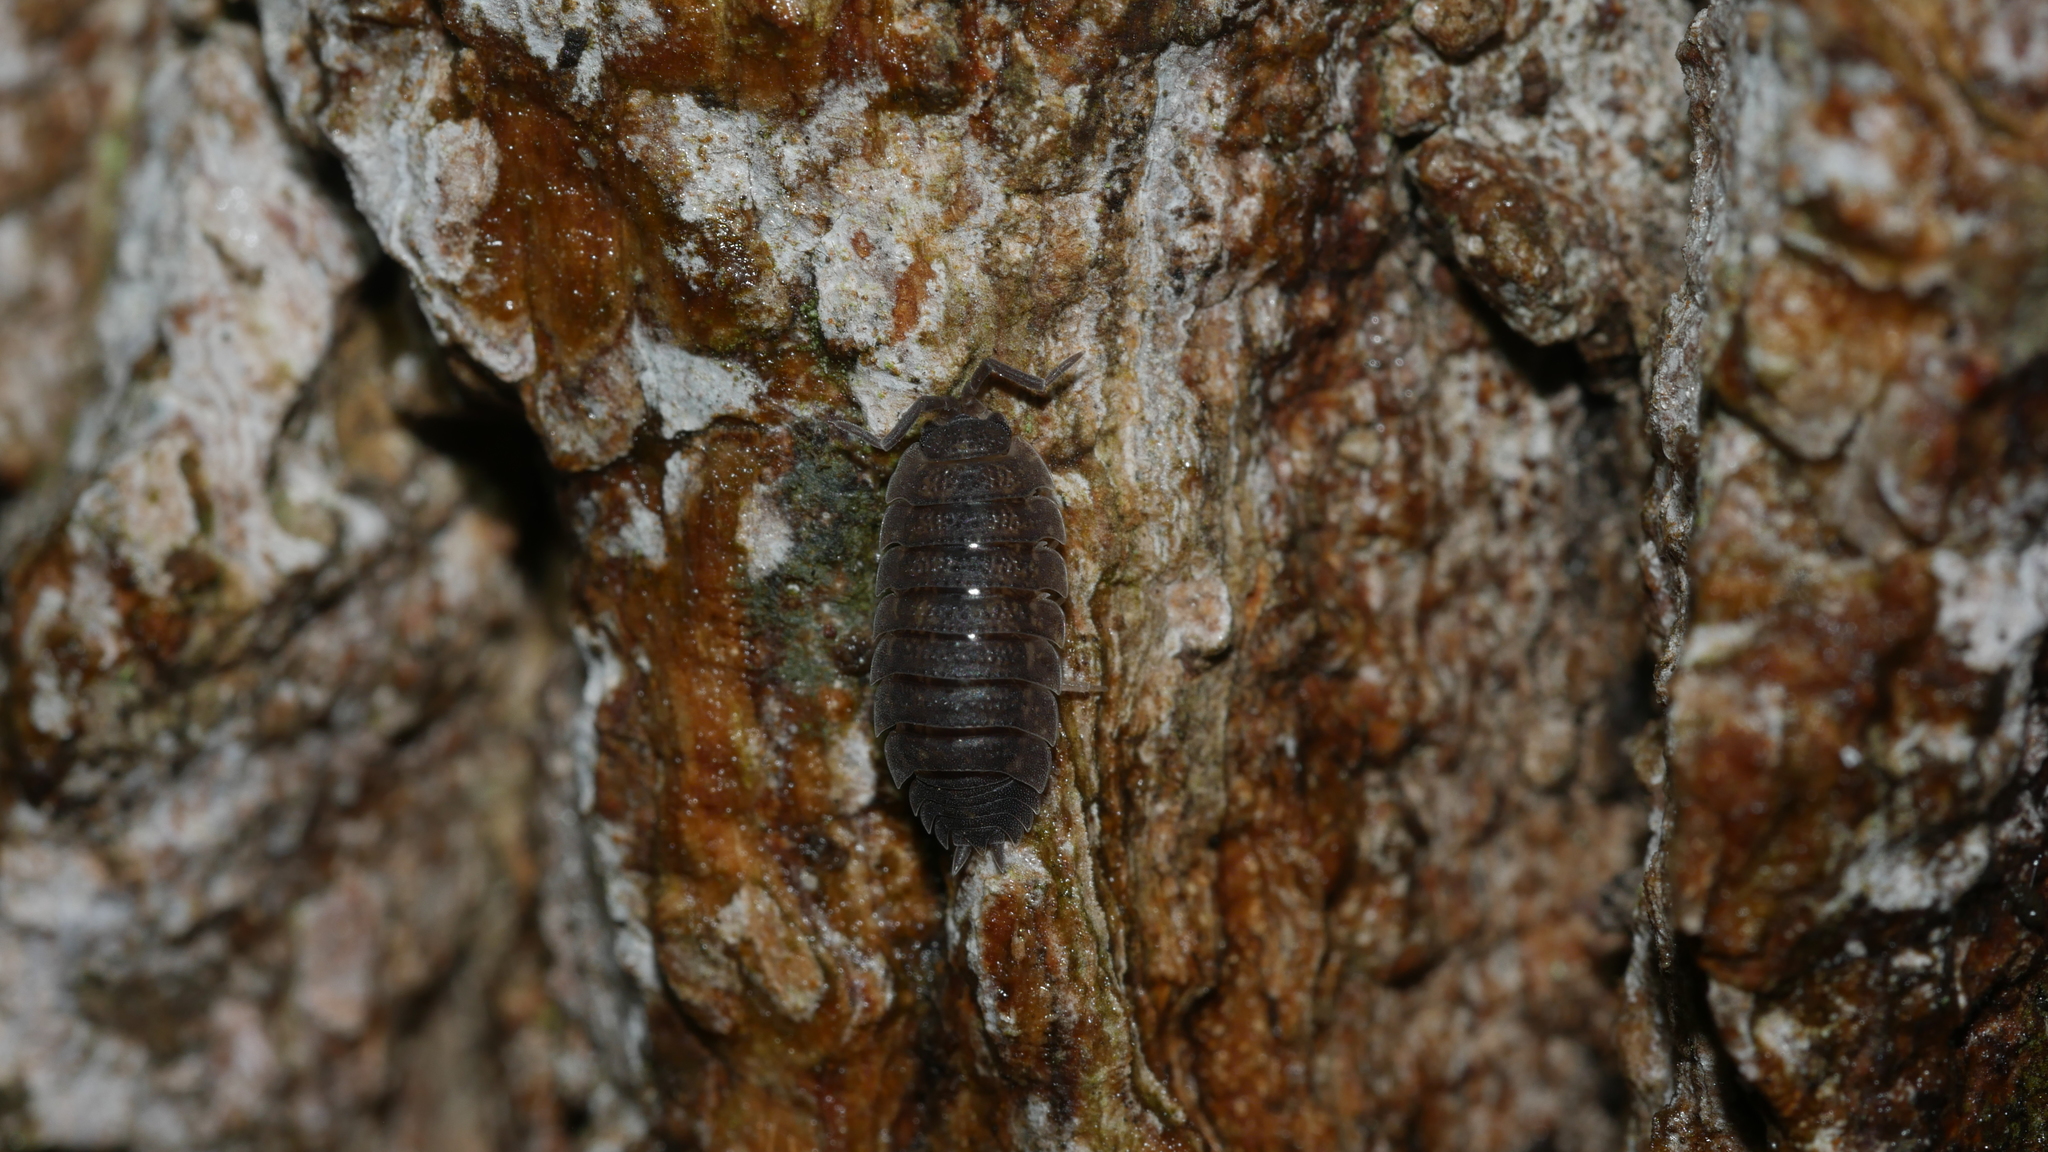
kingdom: Animalia
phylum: Arthropoda
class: Malacostraca
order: Isopoda
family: Porcellionidae
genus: Porcellio
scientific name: Porcellio scaber
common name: Common rough woodlouse
